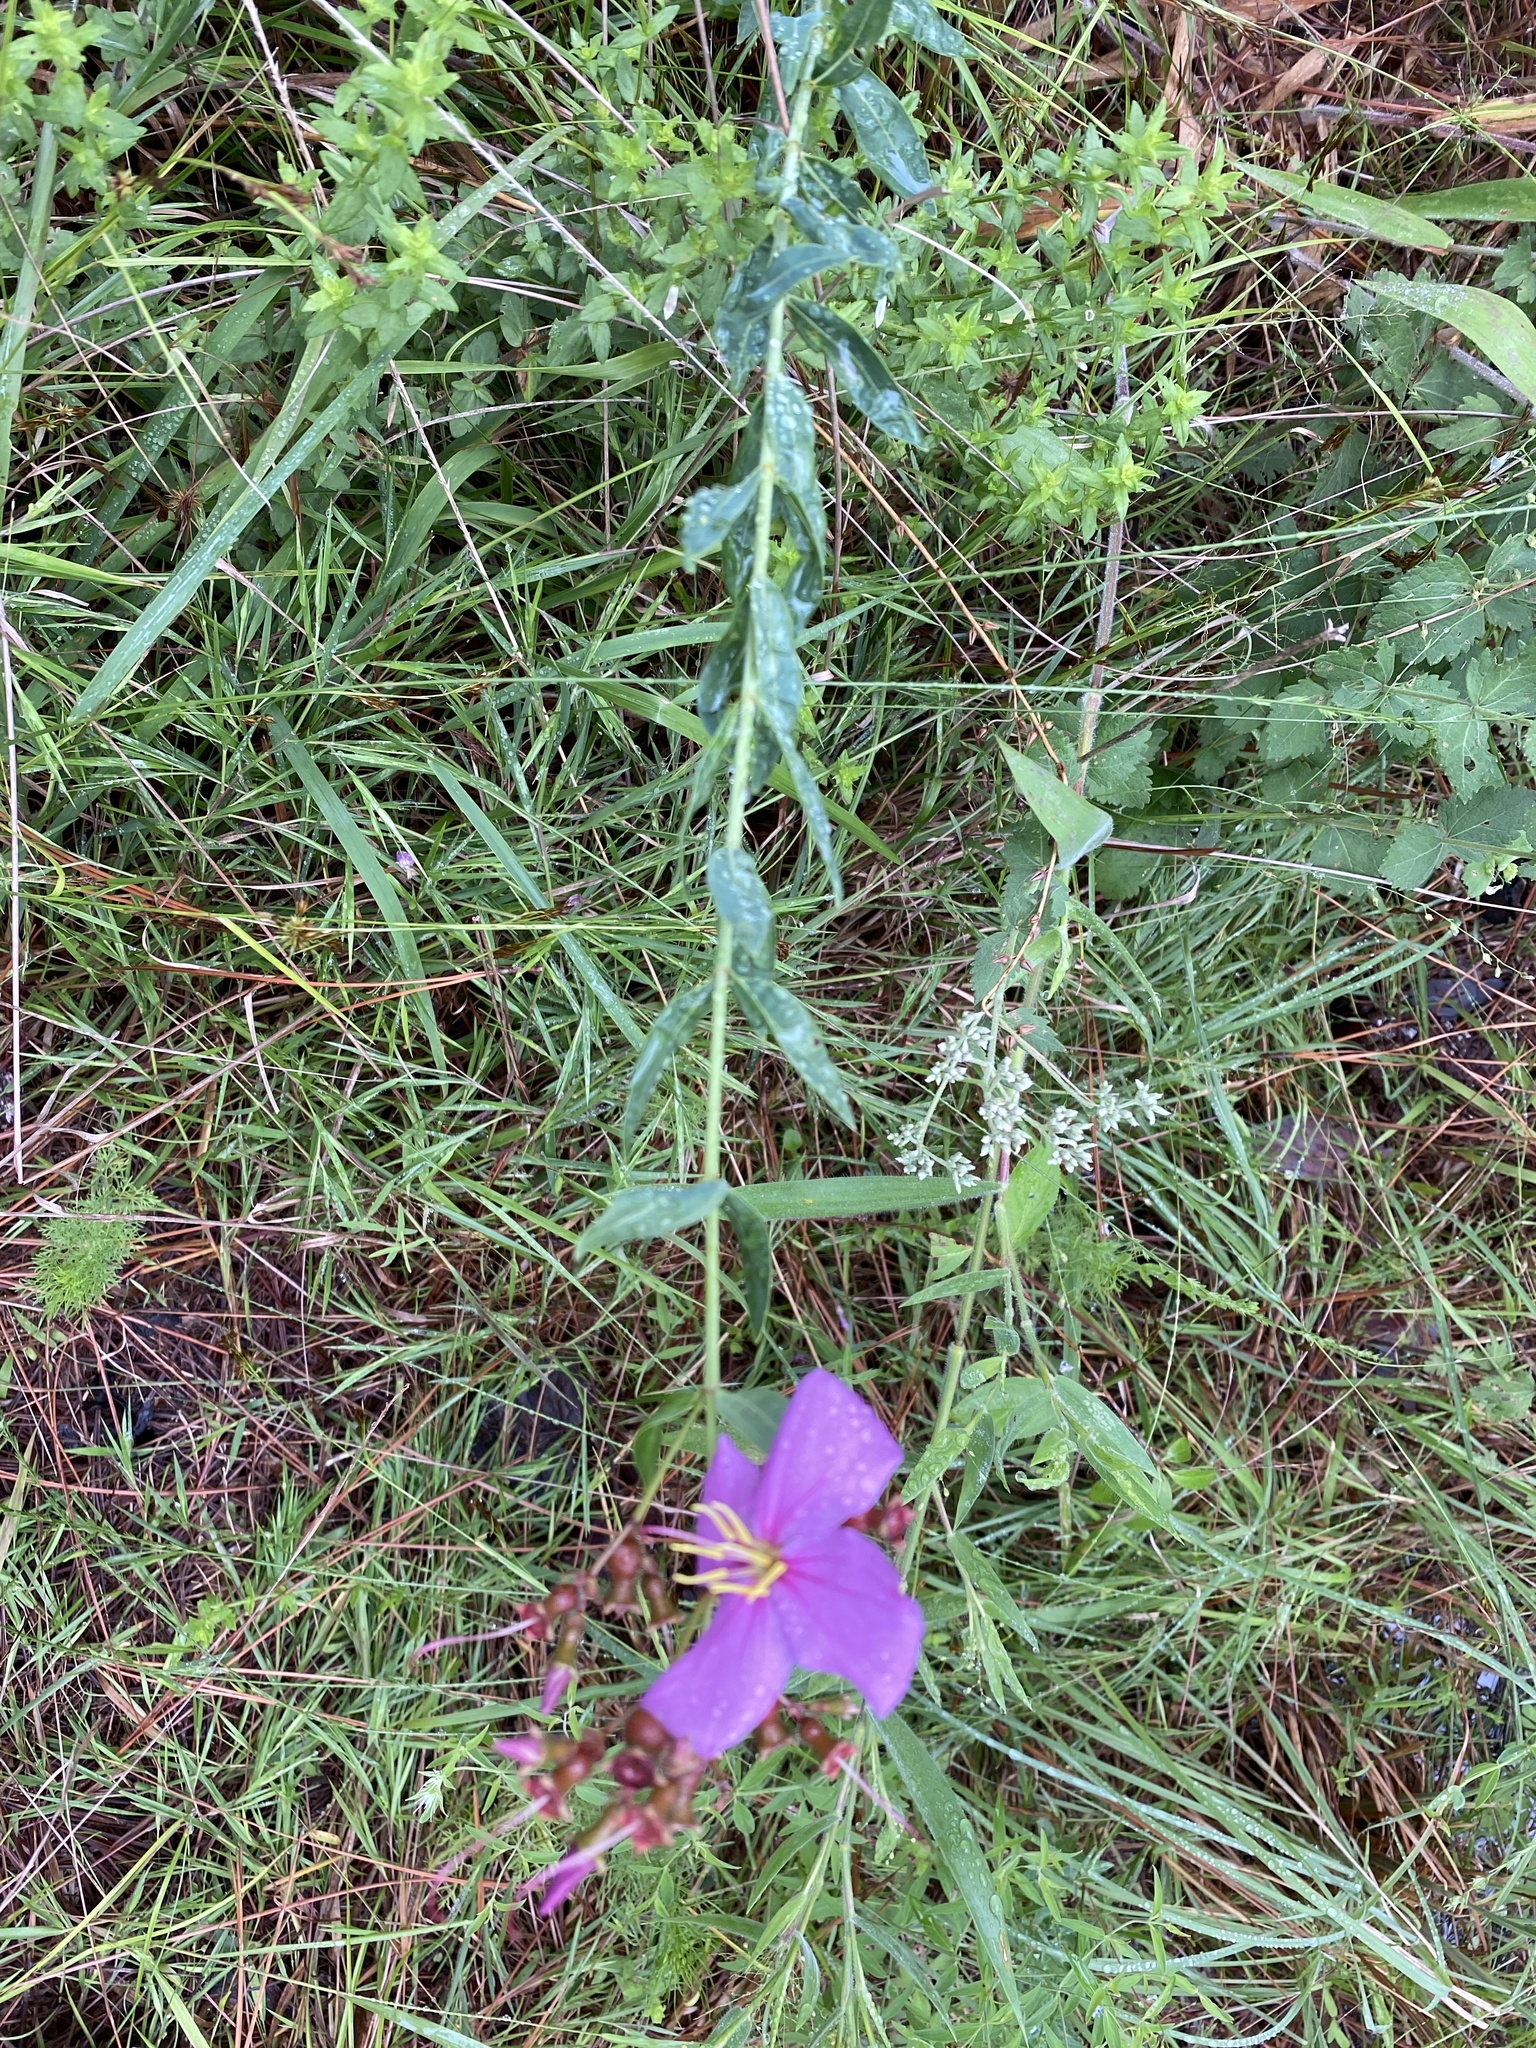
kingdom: Plantae
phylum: Tracheophyta
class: Magnoliopsida
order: Myrtales
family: Melastomataceae
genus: Rhexia
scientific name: Rhexia alifanus
